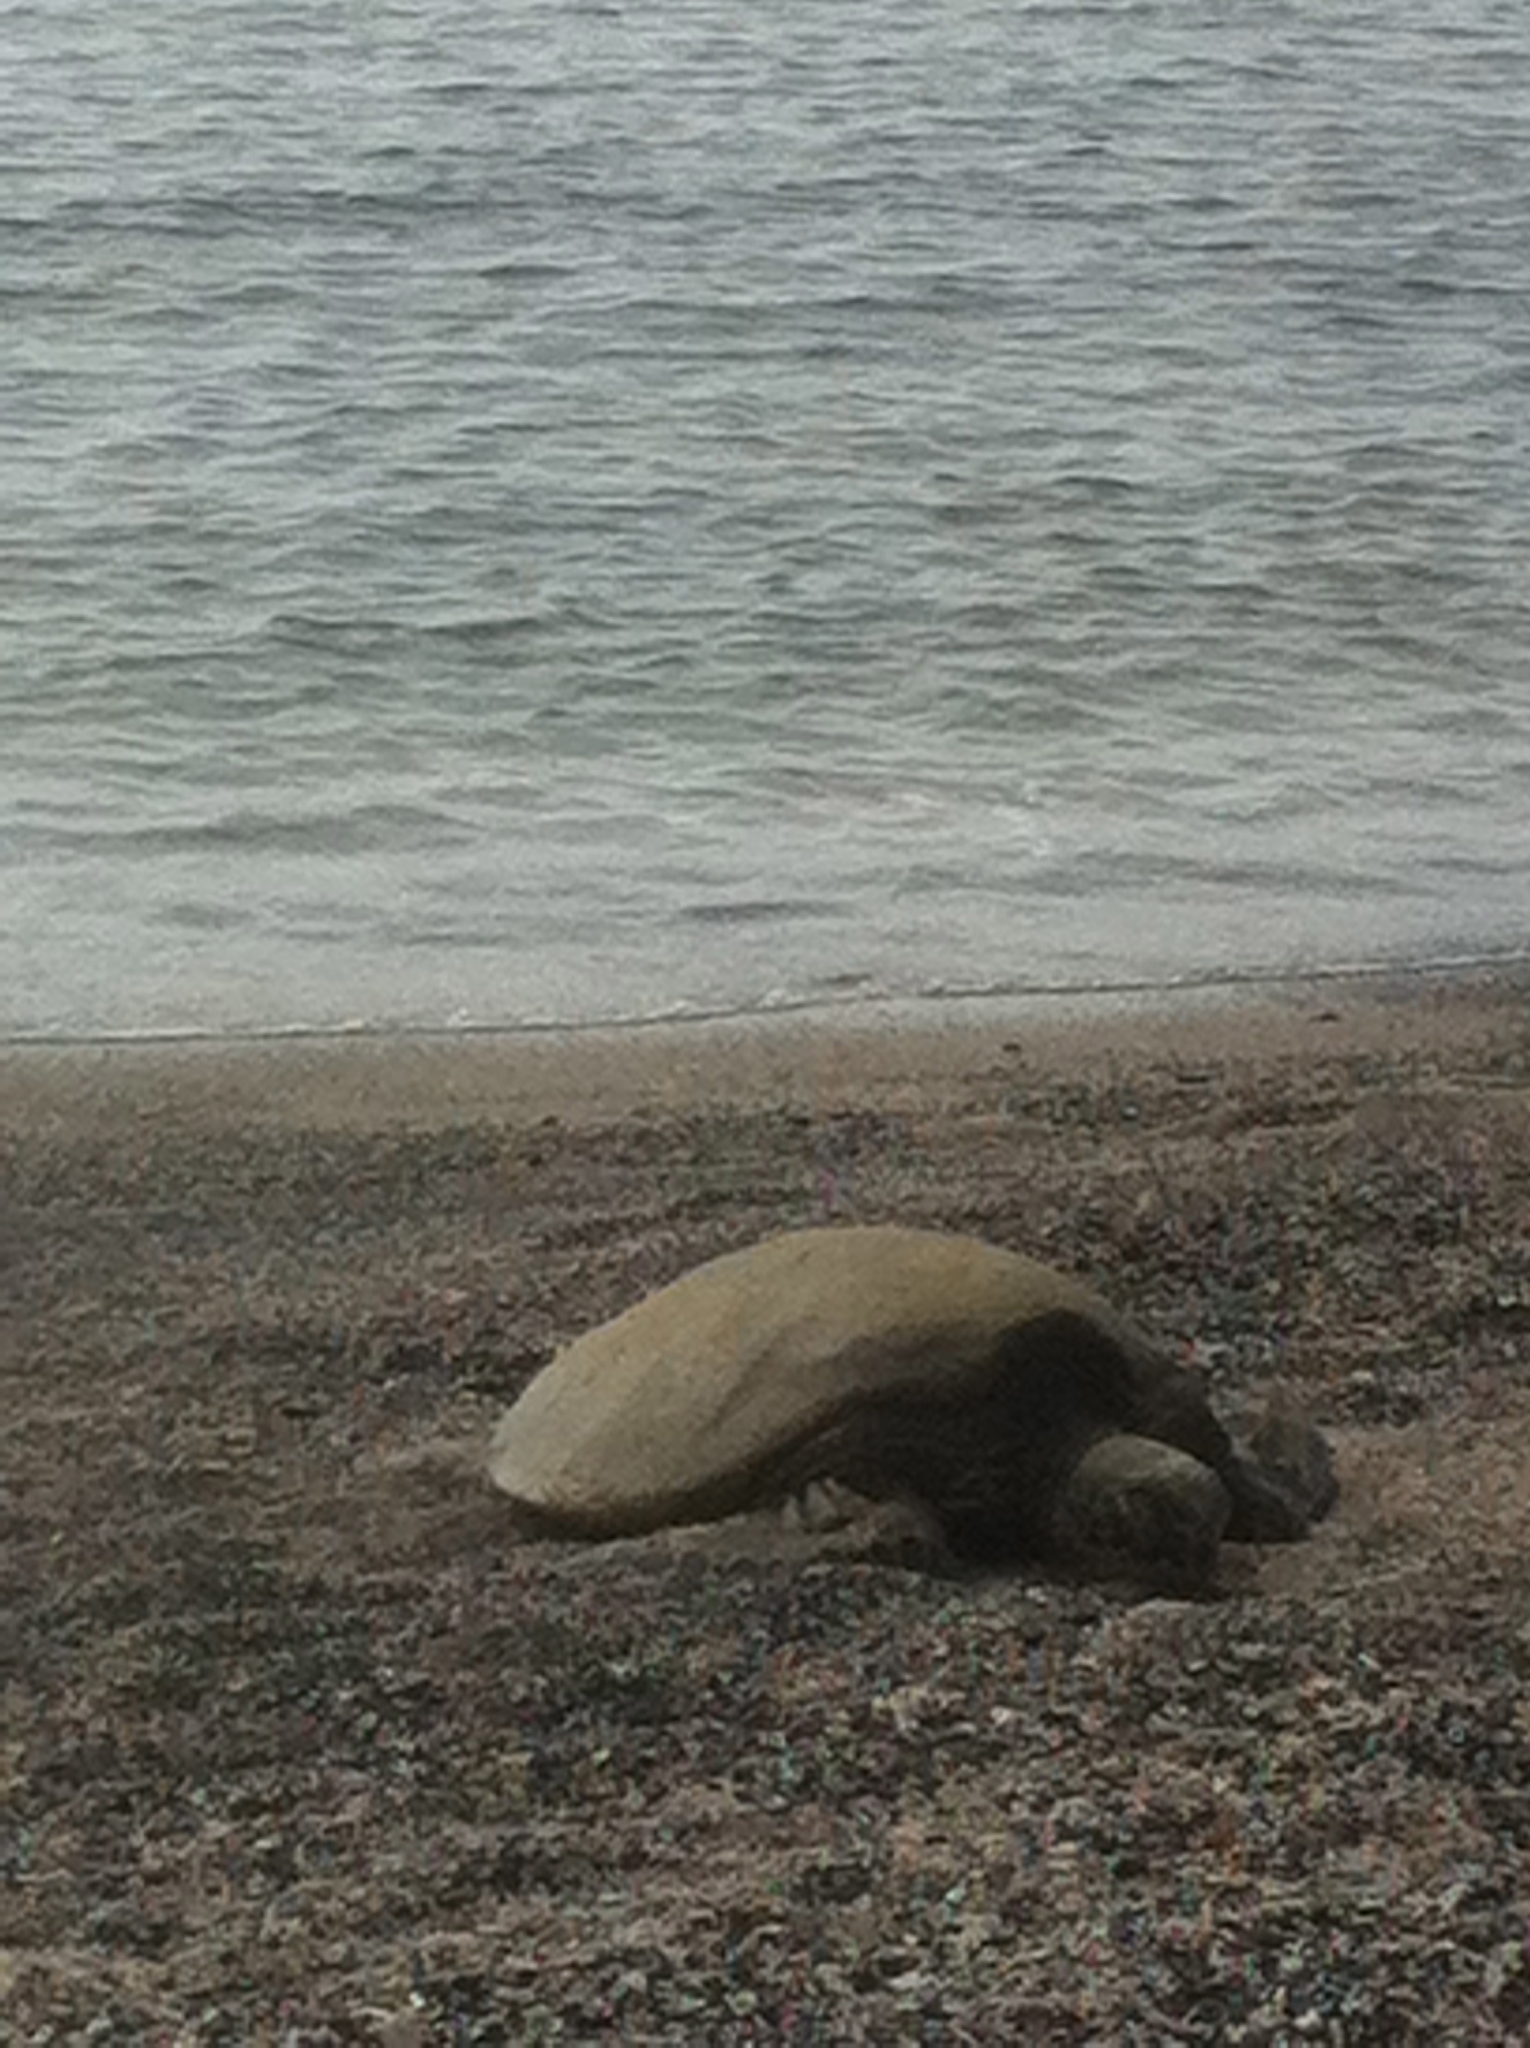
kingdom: Animalia
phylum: Chordata
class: Testudines
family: Cheloniidae
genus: Chelonia
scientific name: Chelonia mydas
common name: Green turtle
